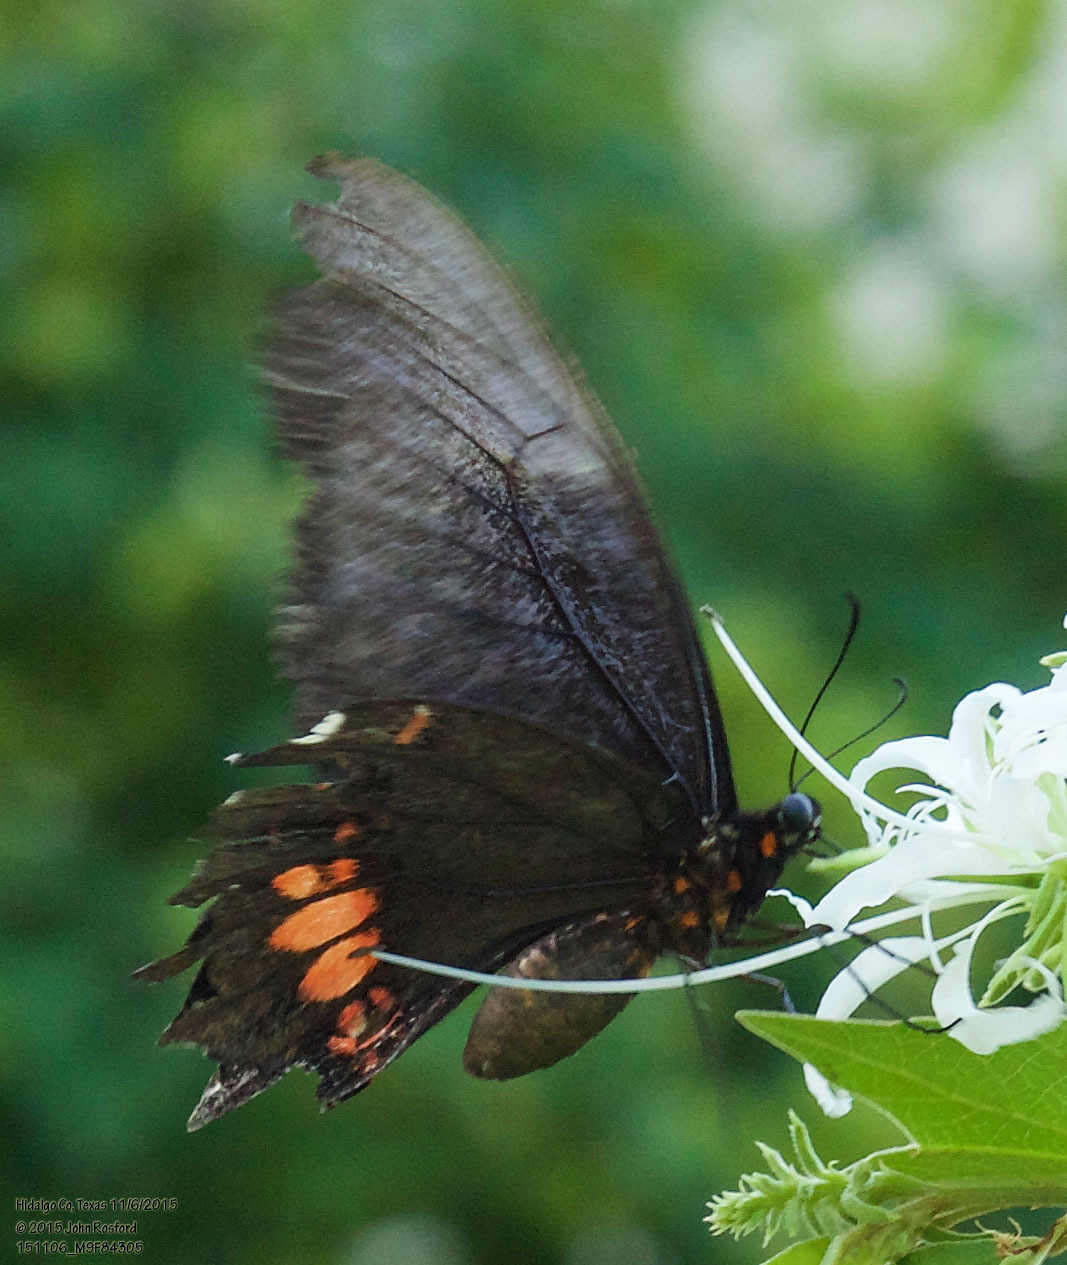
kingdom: Animalia
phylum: Arthropoda
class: Insecta
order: Lepidoptera
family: Papilionidae
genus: Papilio
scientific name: Papilio anchisiades
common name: Idaes swallowtail
